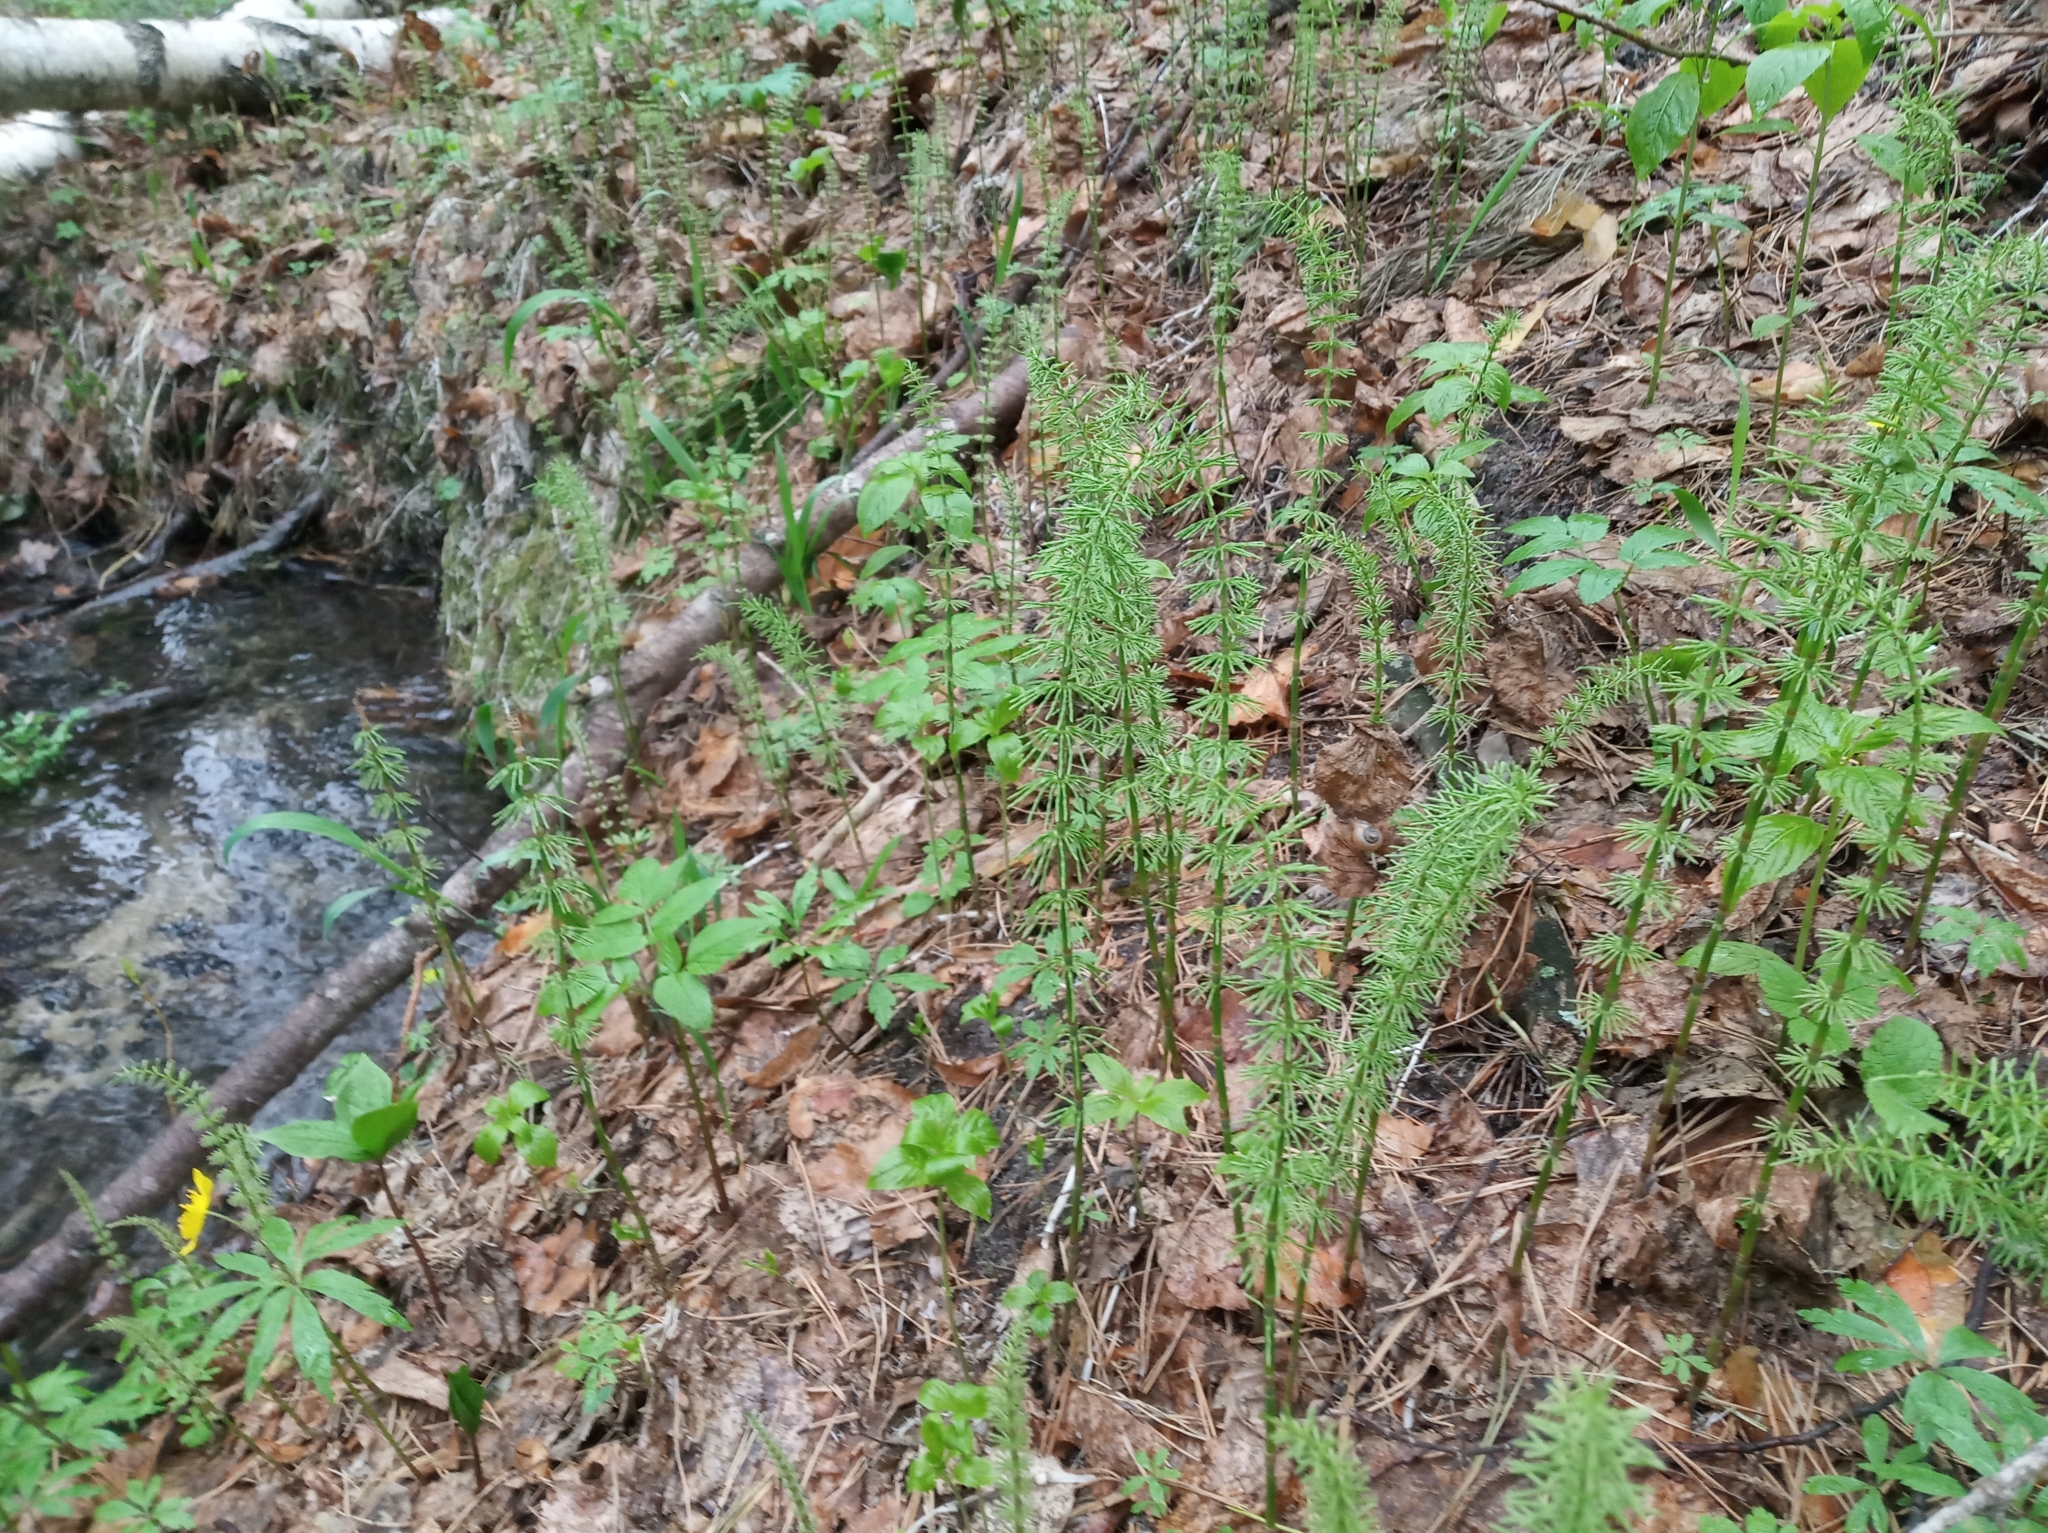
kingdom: Plantae
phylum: Tracheophyta
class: Polypodiopsida
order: Equisetales
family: Equisetaceae
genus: Equisetum
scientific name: Equisetum pratense
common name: Meadow horsetail
